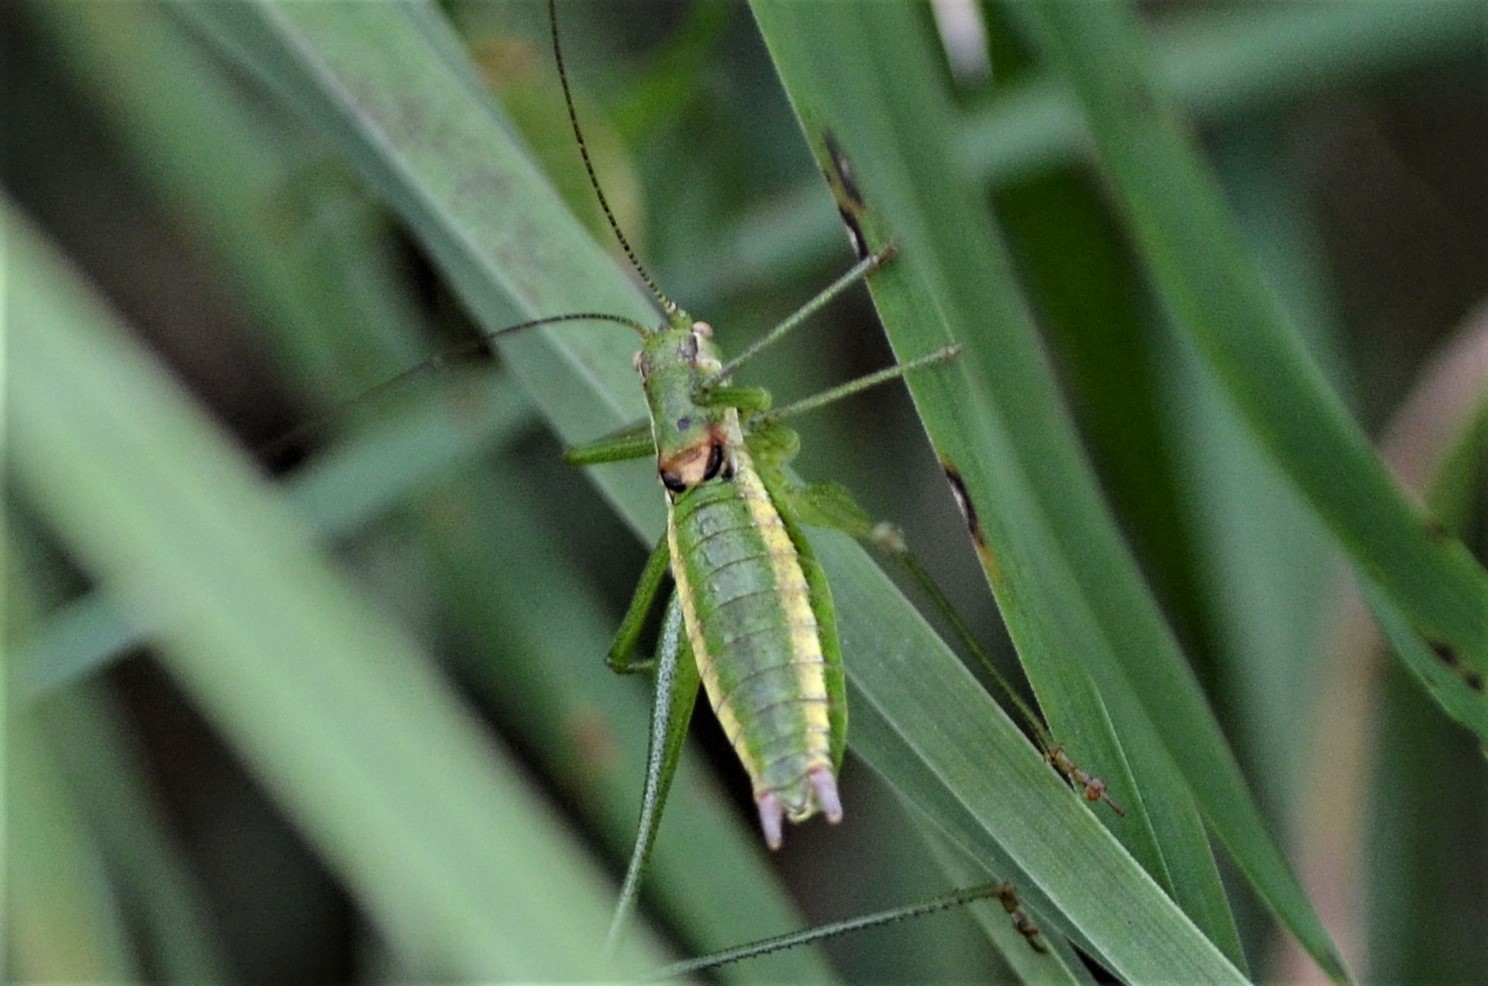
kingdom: Animalia
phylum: Arthropoda
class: Insecta
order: Orthoptera
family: Tettigoniidae
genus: Leptophyes
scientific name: Leptophyes boscii
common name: Balkan speckled bush-cricket
